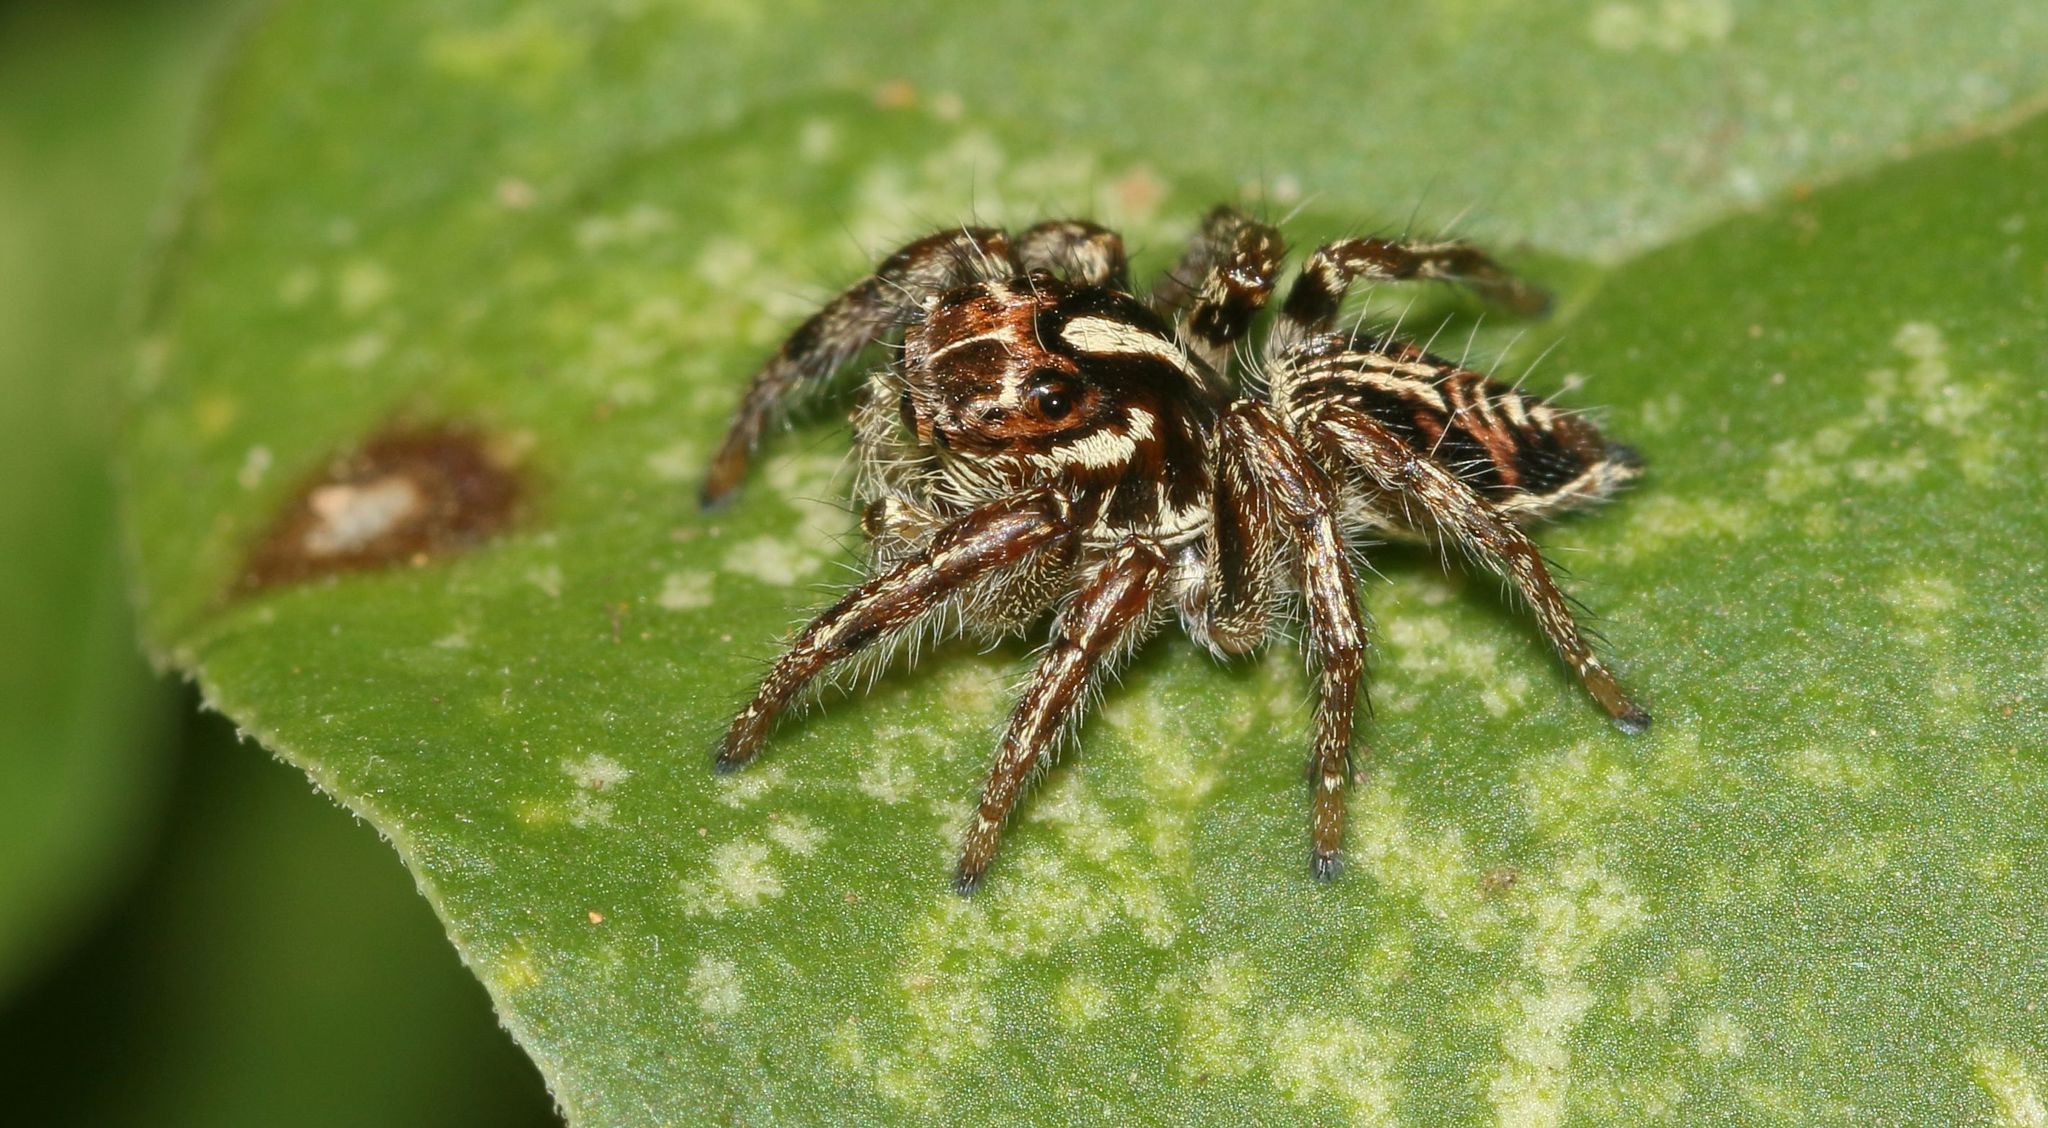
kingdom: Animalia
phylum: Arthropoda
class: Arachnida
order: Araneae
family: Salticidae
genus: Hyllus
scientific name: Hyllus argyrotoxus
